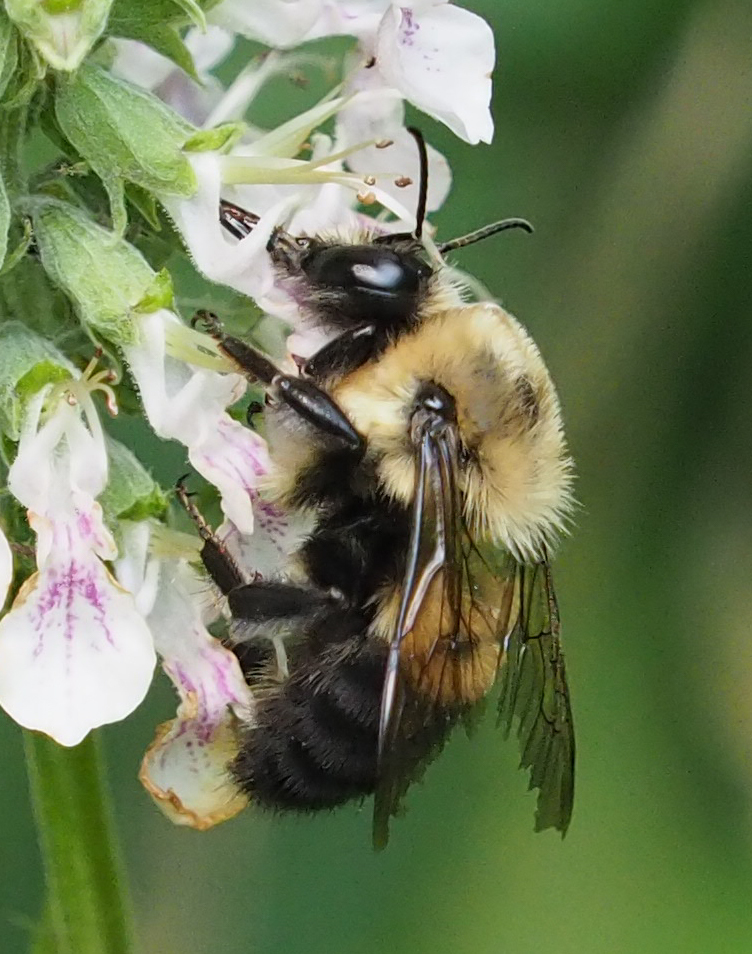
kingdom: Animalia
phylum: Arthropoda
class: Insecta
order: Hymenoptera
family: Apidae
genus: Bombus
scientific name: Bombus griseocollis
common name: Brown-belted bumble bee
